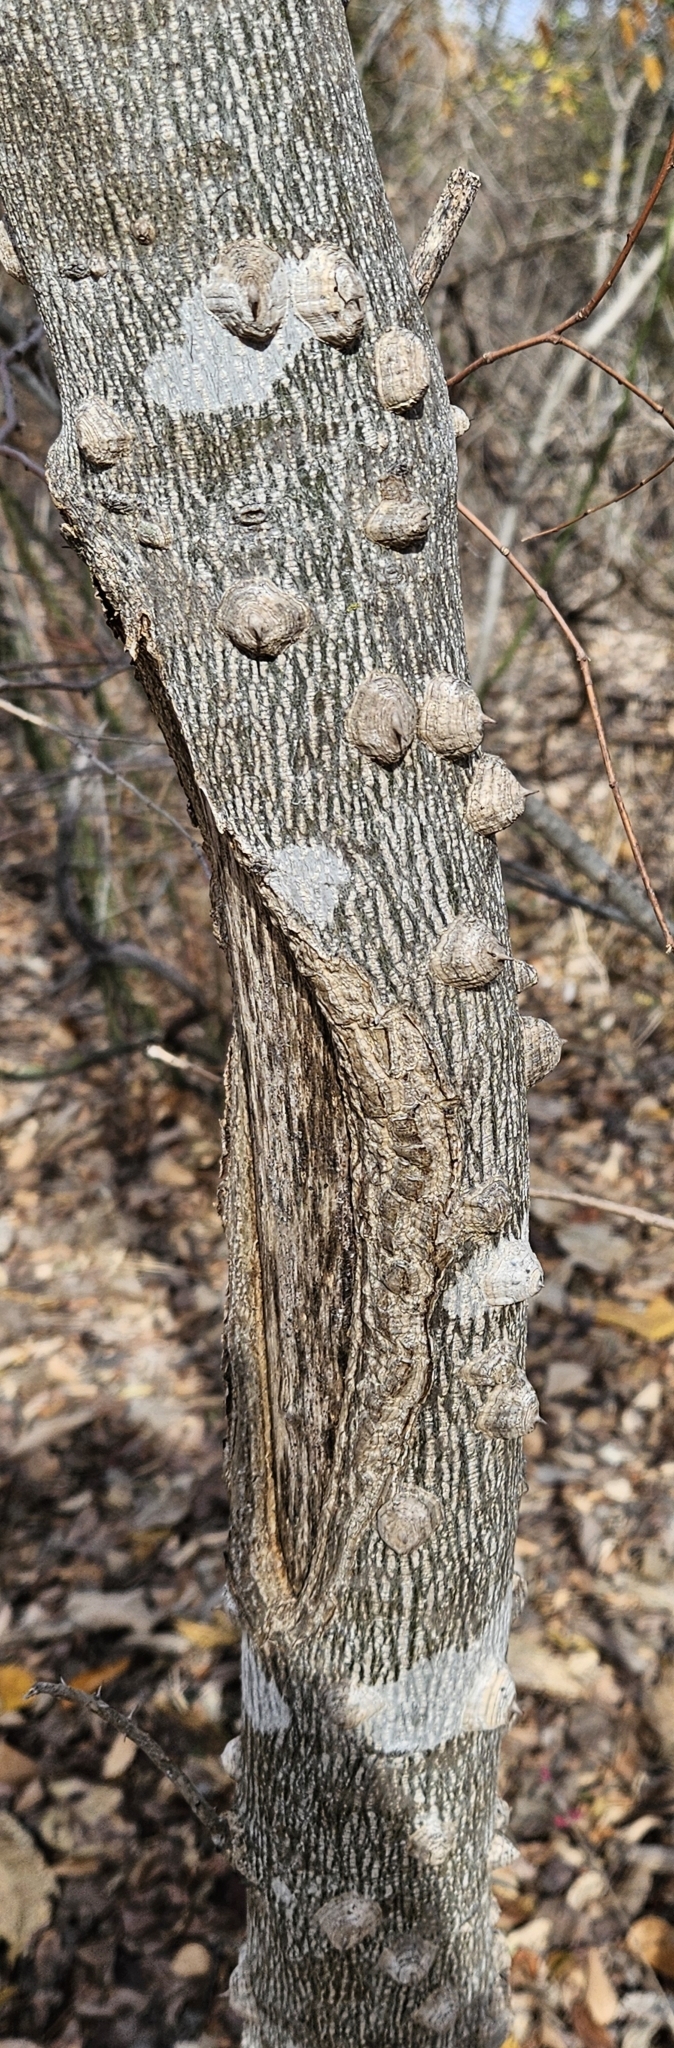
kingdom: Plantae
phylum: Tracheophyta
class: Magnoliopsida
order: Sapindales
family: Rutaceae
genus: Zanthoxylum
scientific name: Zanthoxylum clava-herculis
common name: Hercules'-club
